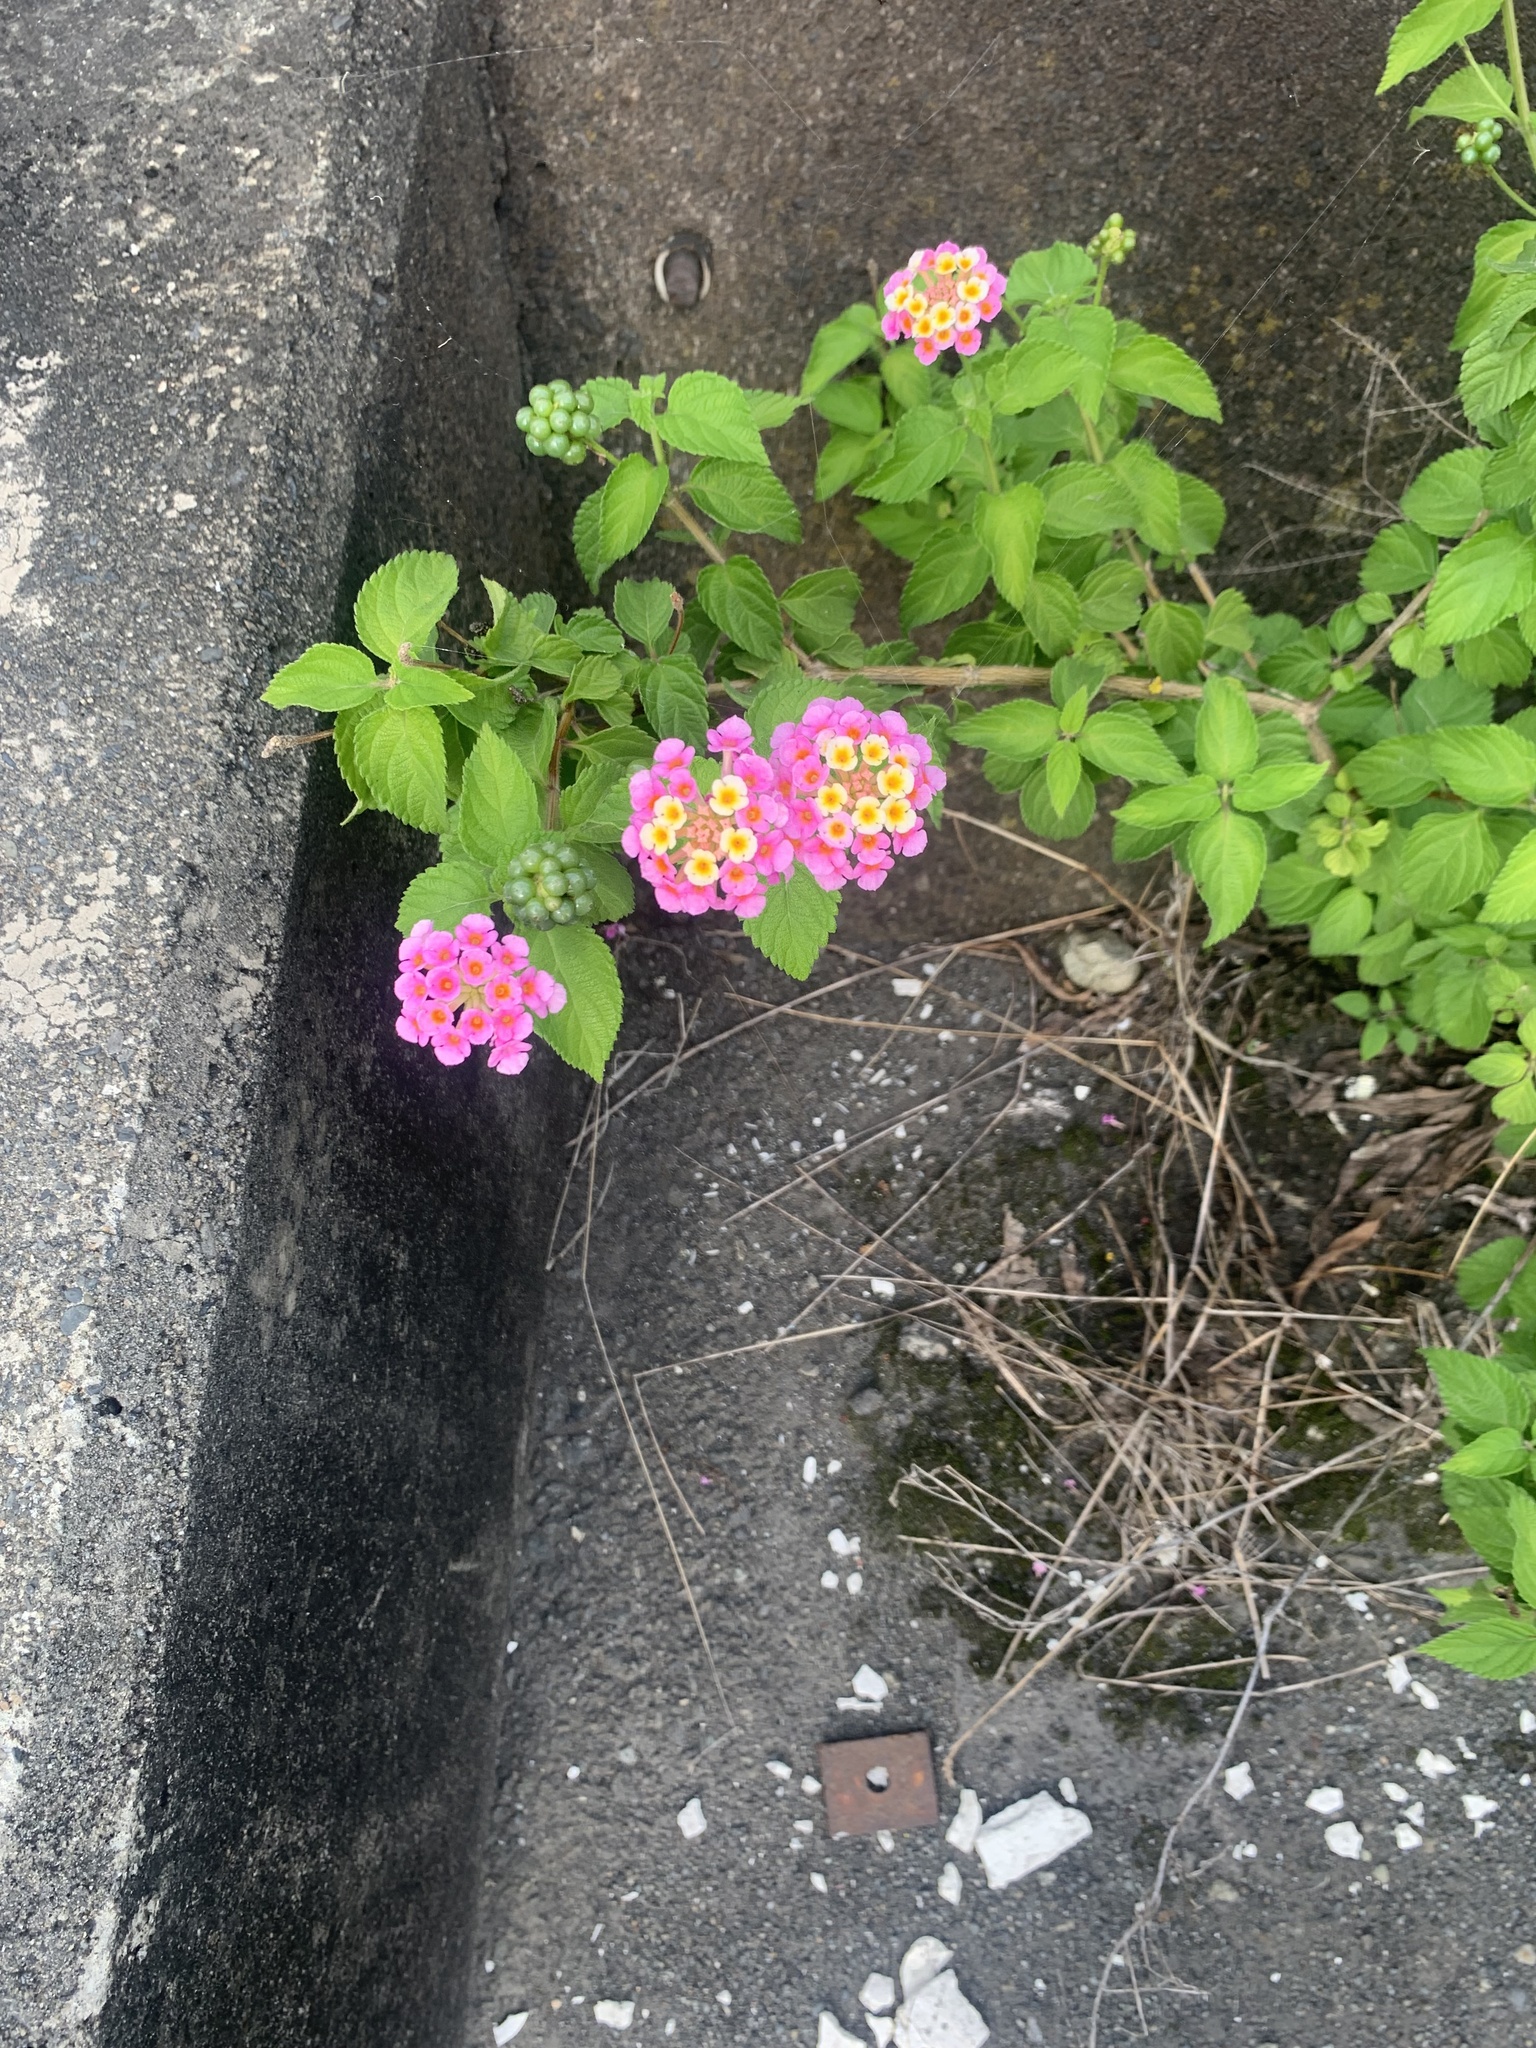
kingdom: Plantae
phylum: Tracheophyta
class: Magnoliopsida
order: Lamiales
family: Verbenaceae
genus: Lantana
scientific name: Lantana camara
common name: Lantana
